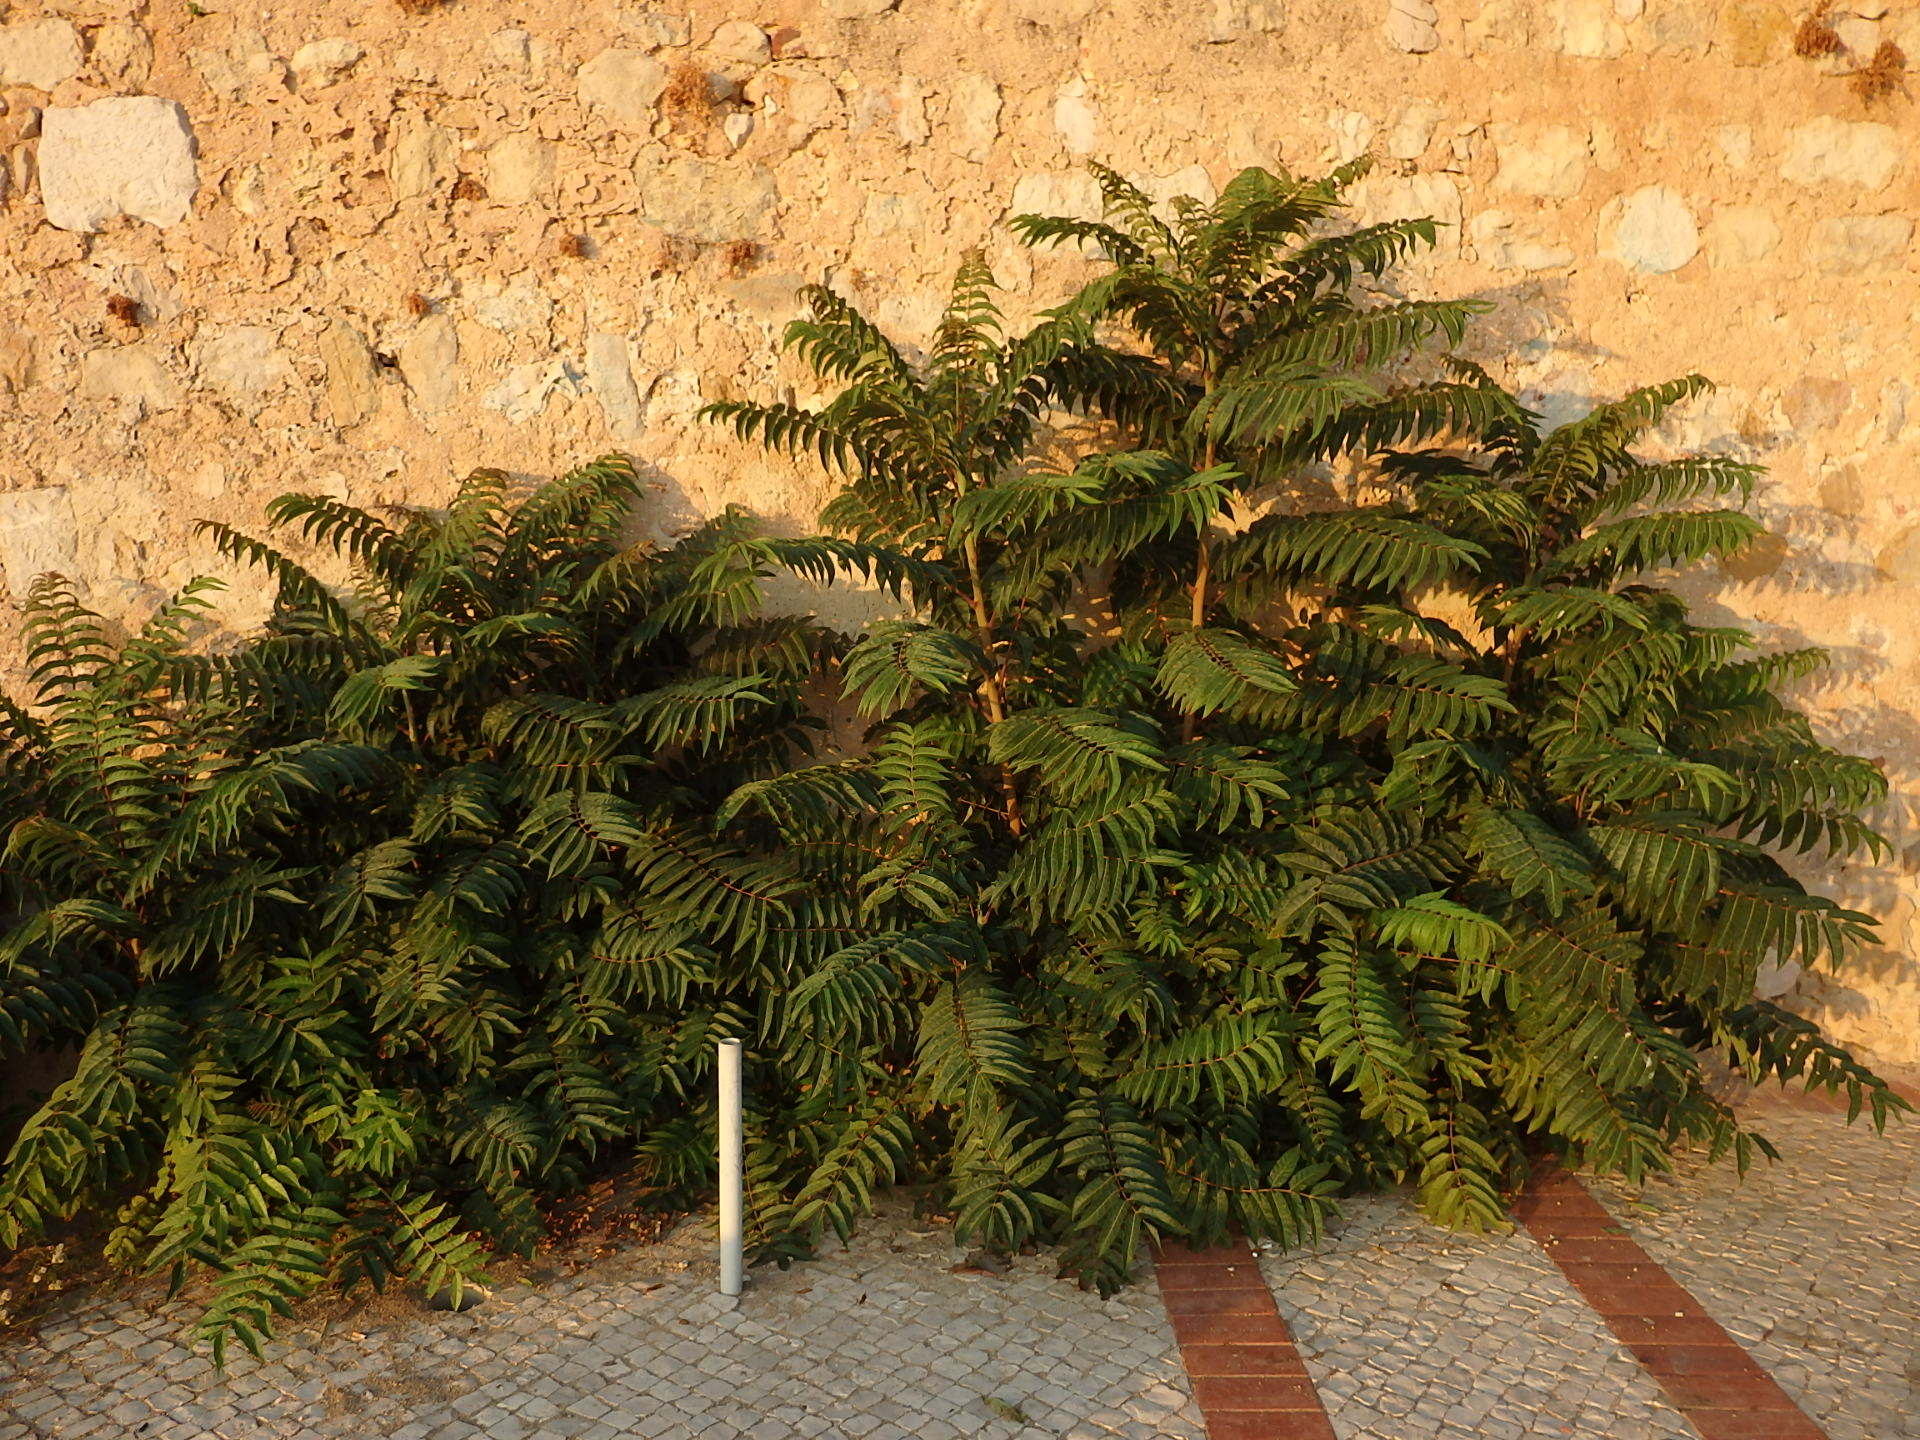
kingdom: Plantae
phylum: Tracheophyta
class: Magnoliopsida
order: Sapindales
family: Simaroubaceae
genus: Ailanthus
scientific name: Ailanthus altissima
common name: Tree-of-heaven
